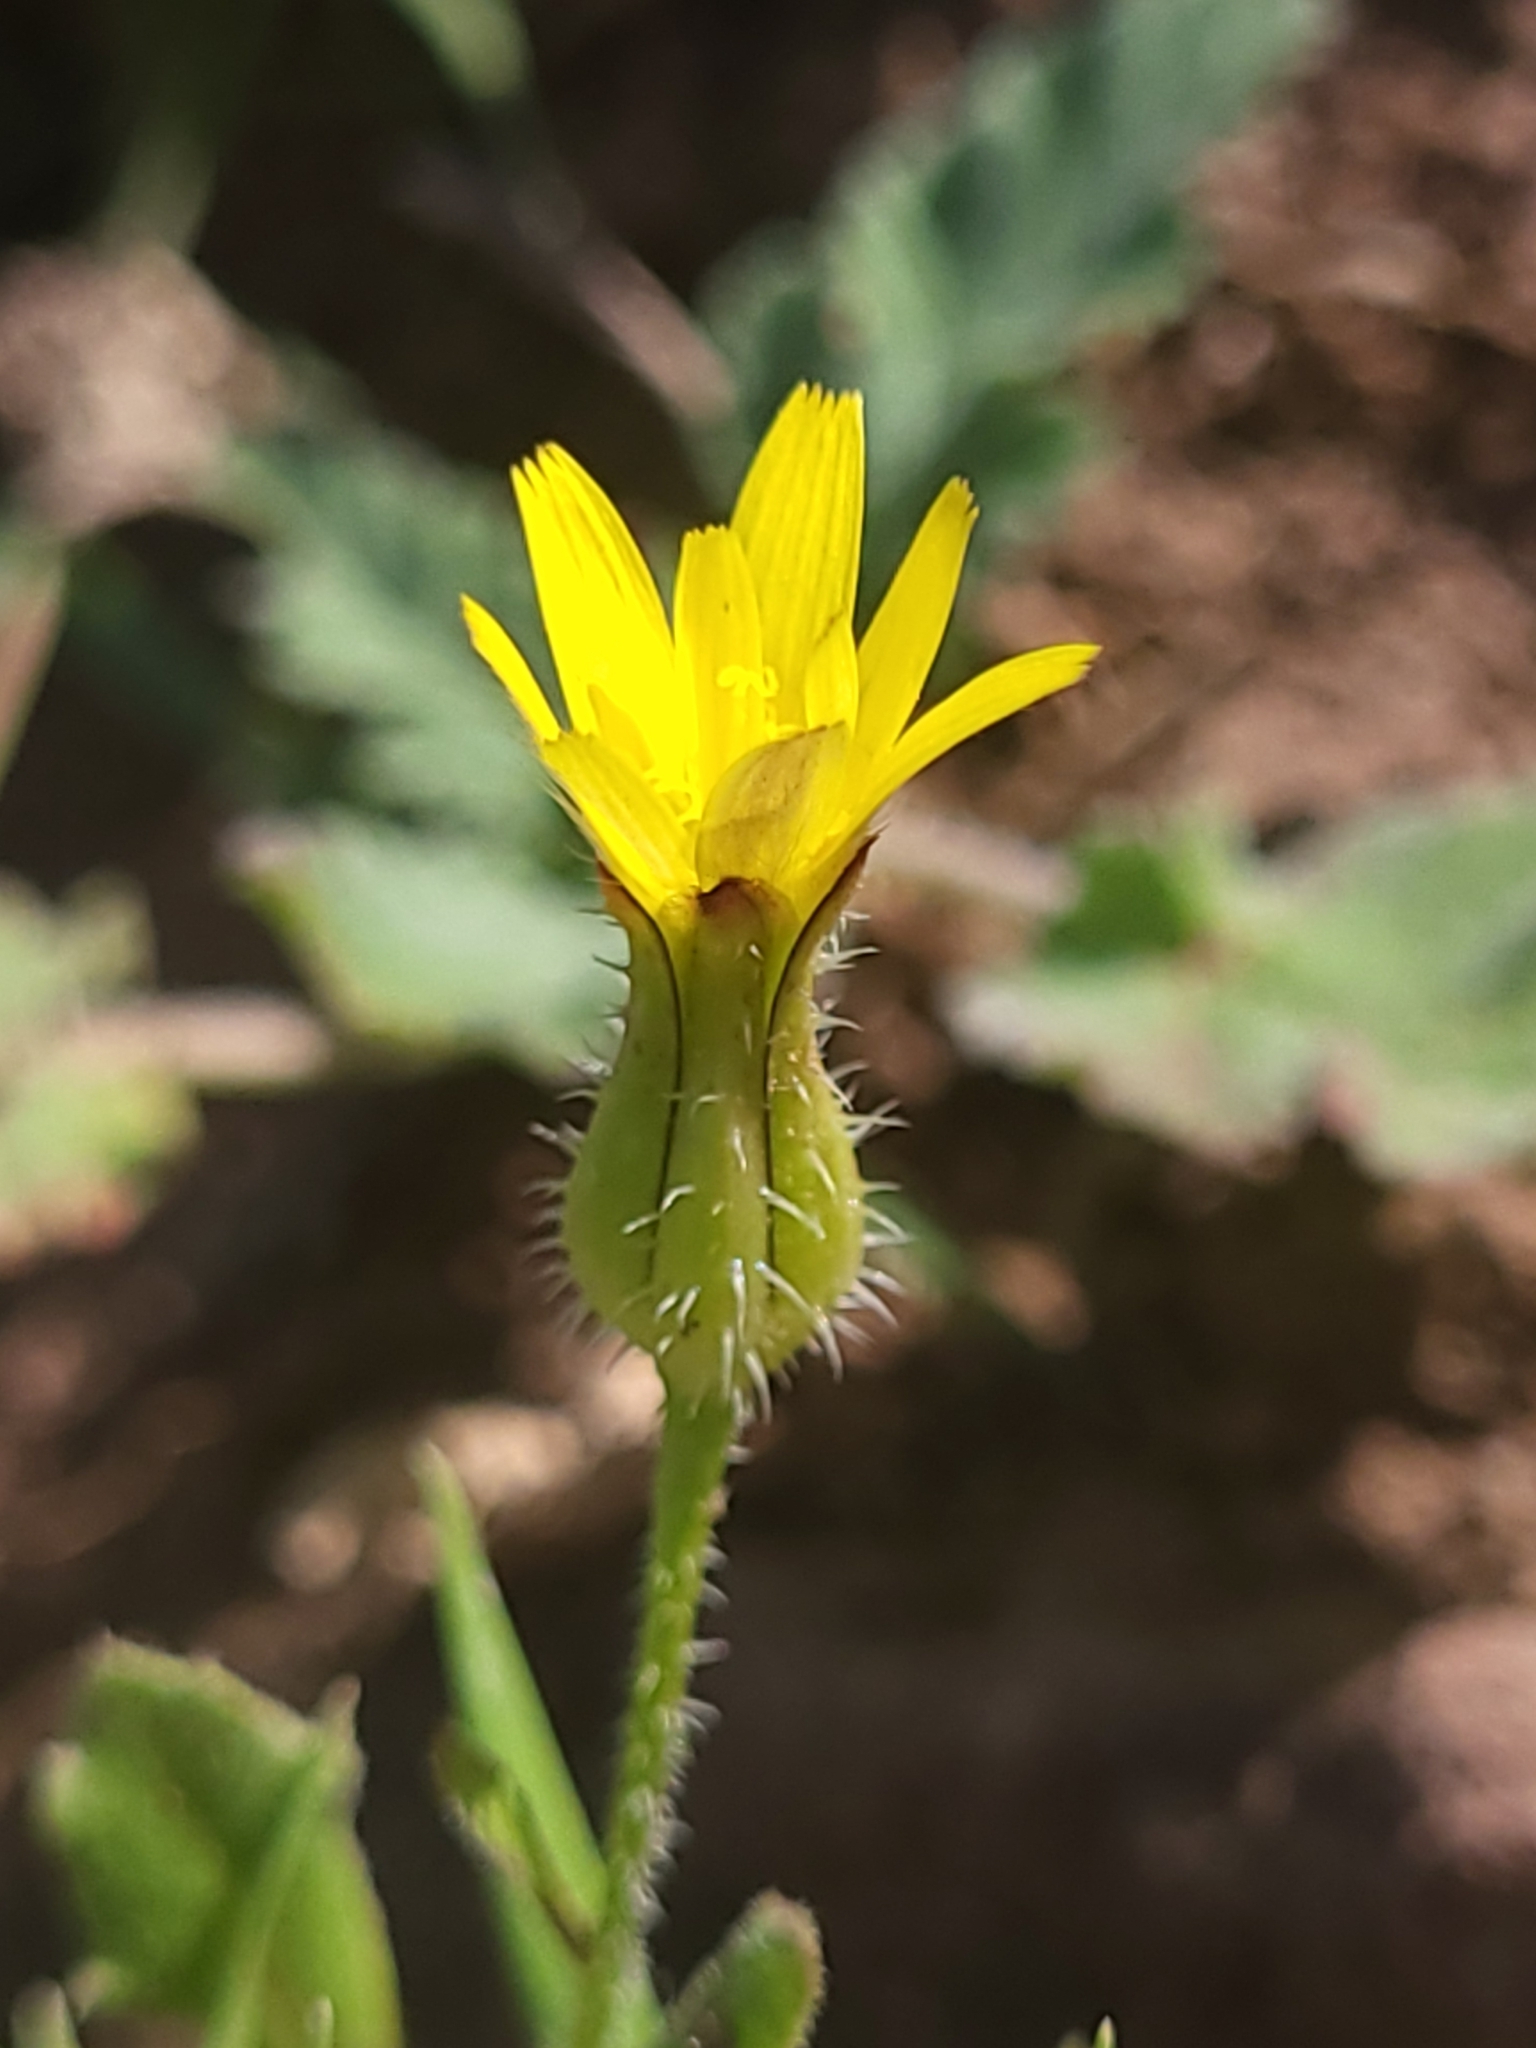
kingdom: Plantae
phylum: Tracheophyta
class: Magnoliopsida
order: Asterales
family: Asteraceae
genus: Urospermum
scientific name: Urospermum picroides
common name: False hawkbit
